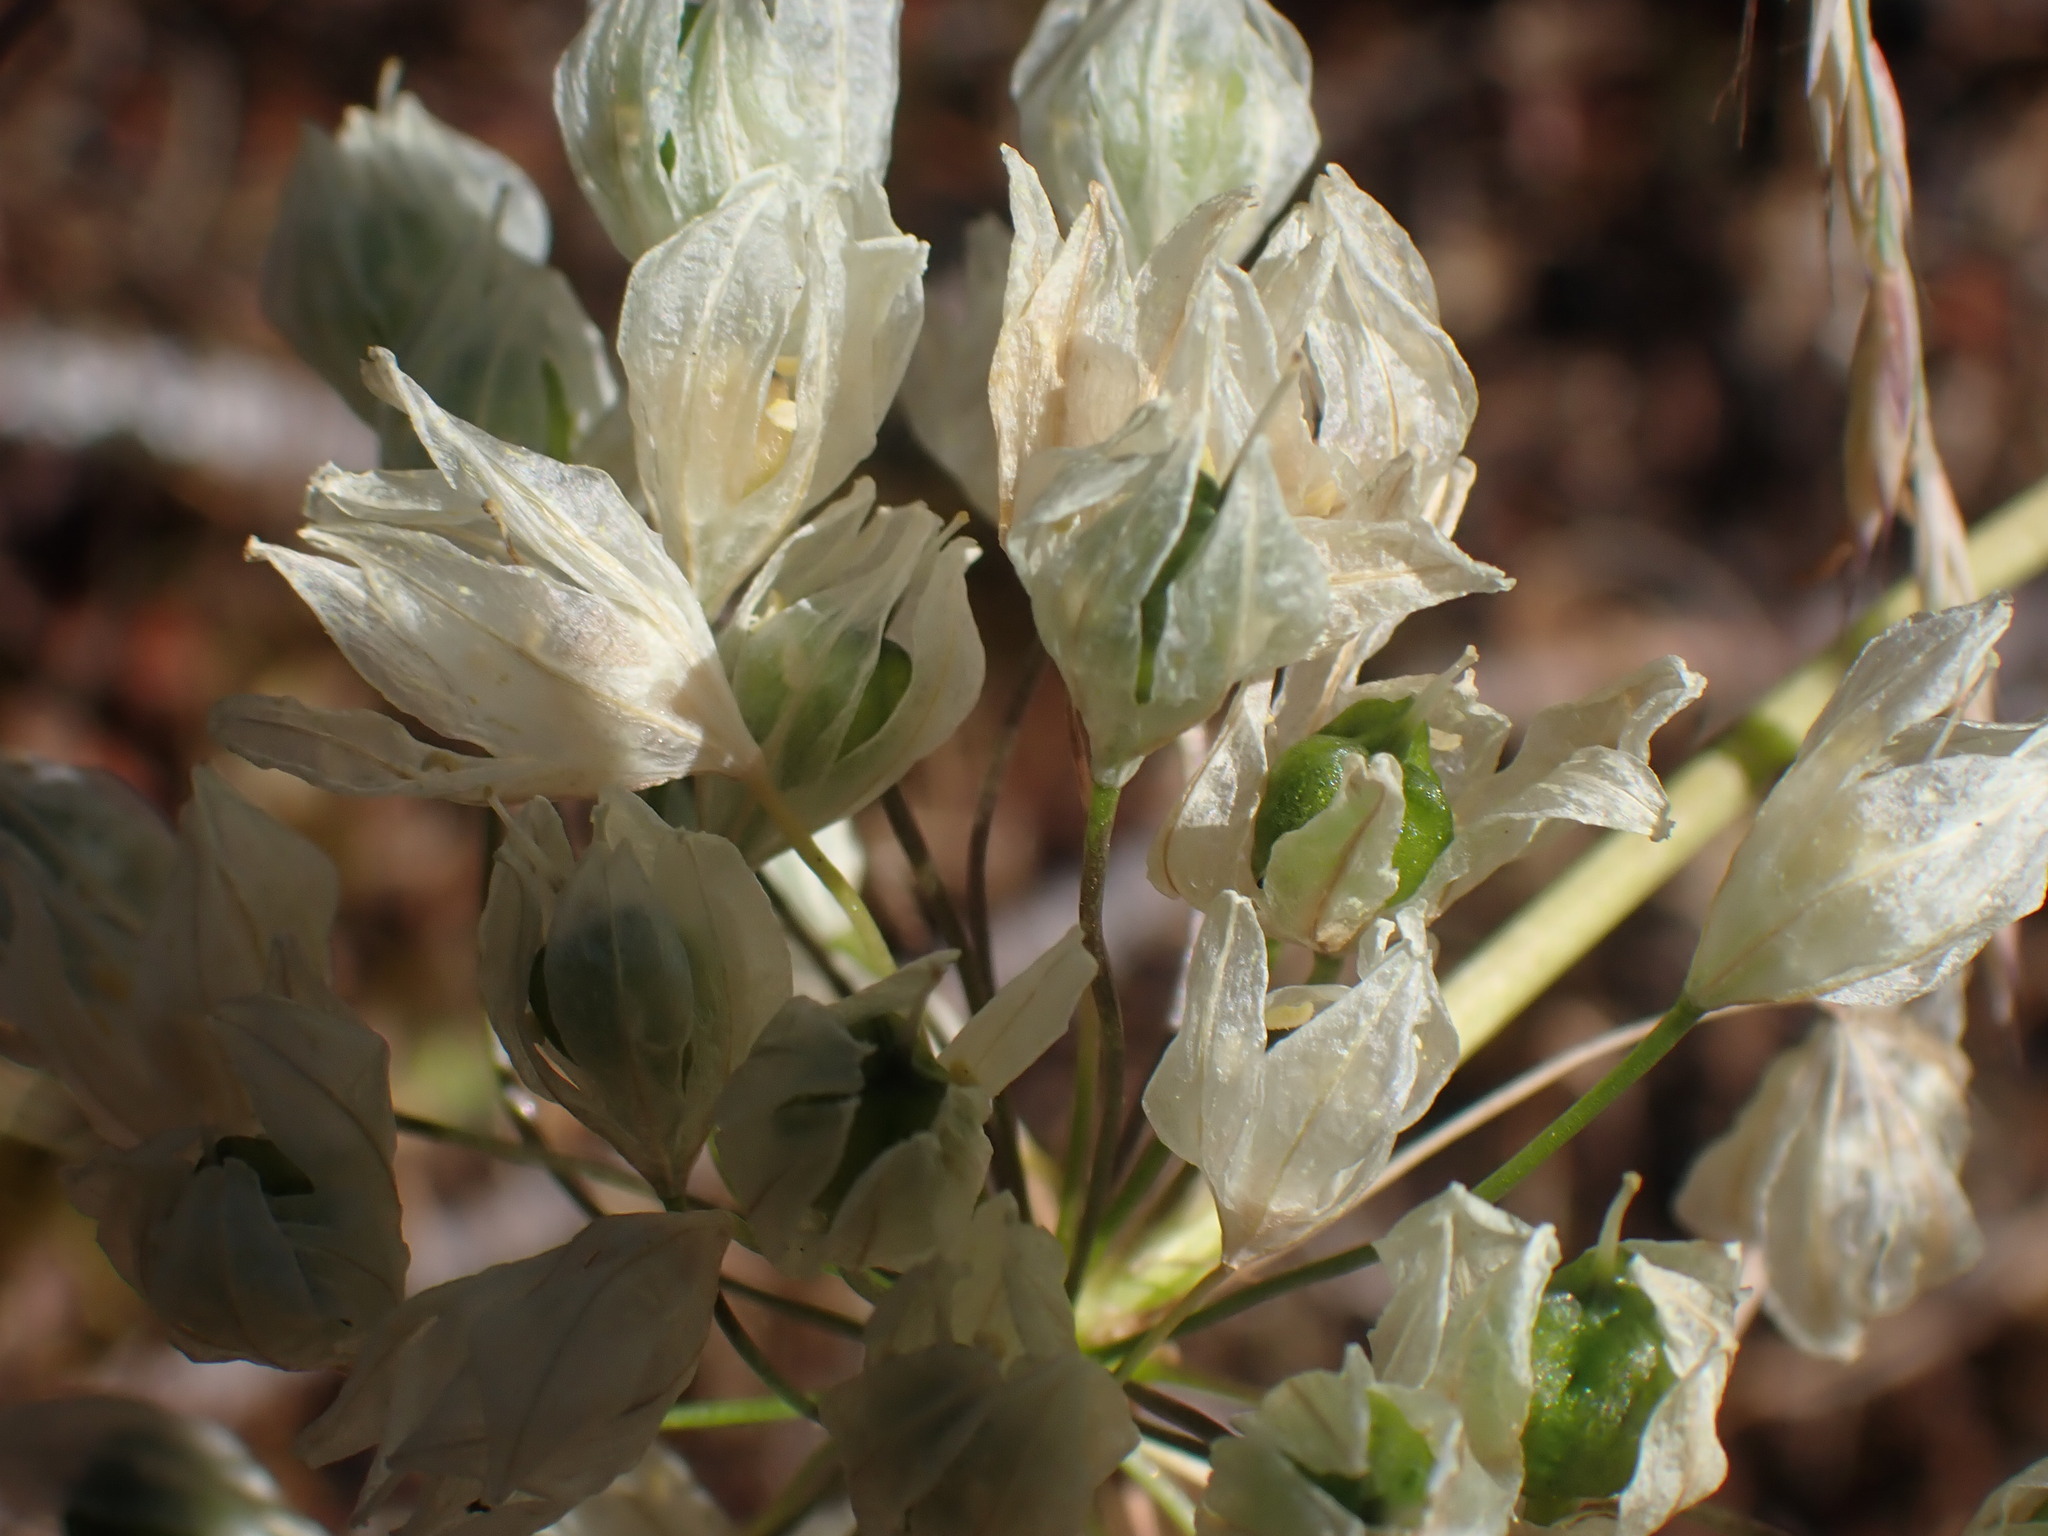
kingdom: Plantae
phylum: Tracheophyta
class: Liliopsida
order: Asparagales
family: Asparagaceae
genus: Triteleia
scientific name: Triteleia hyacinthina
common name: White brodiaea
